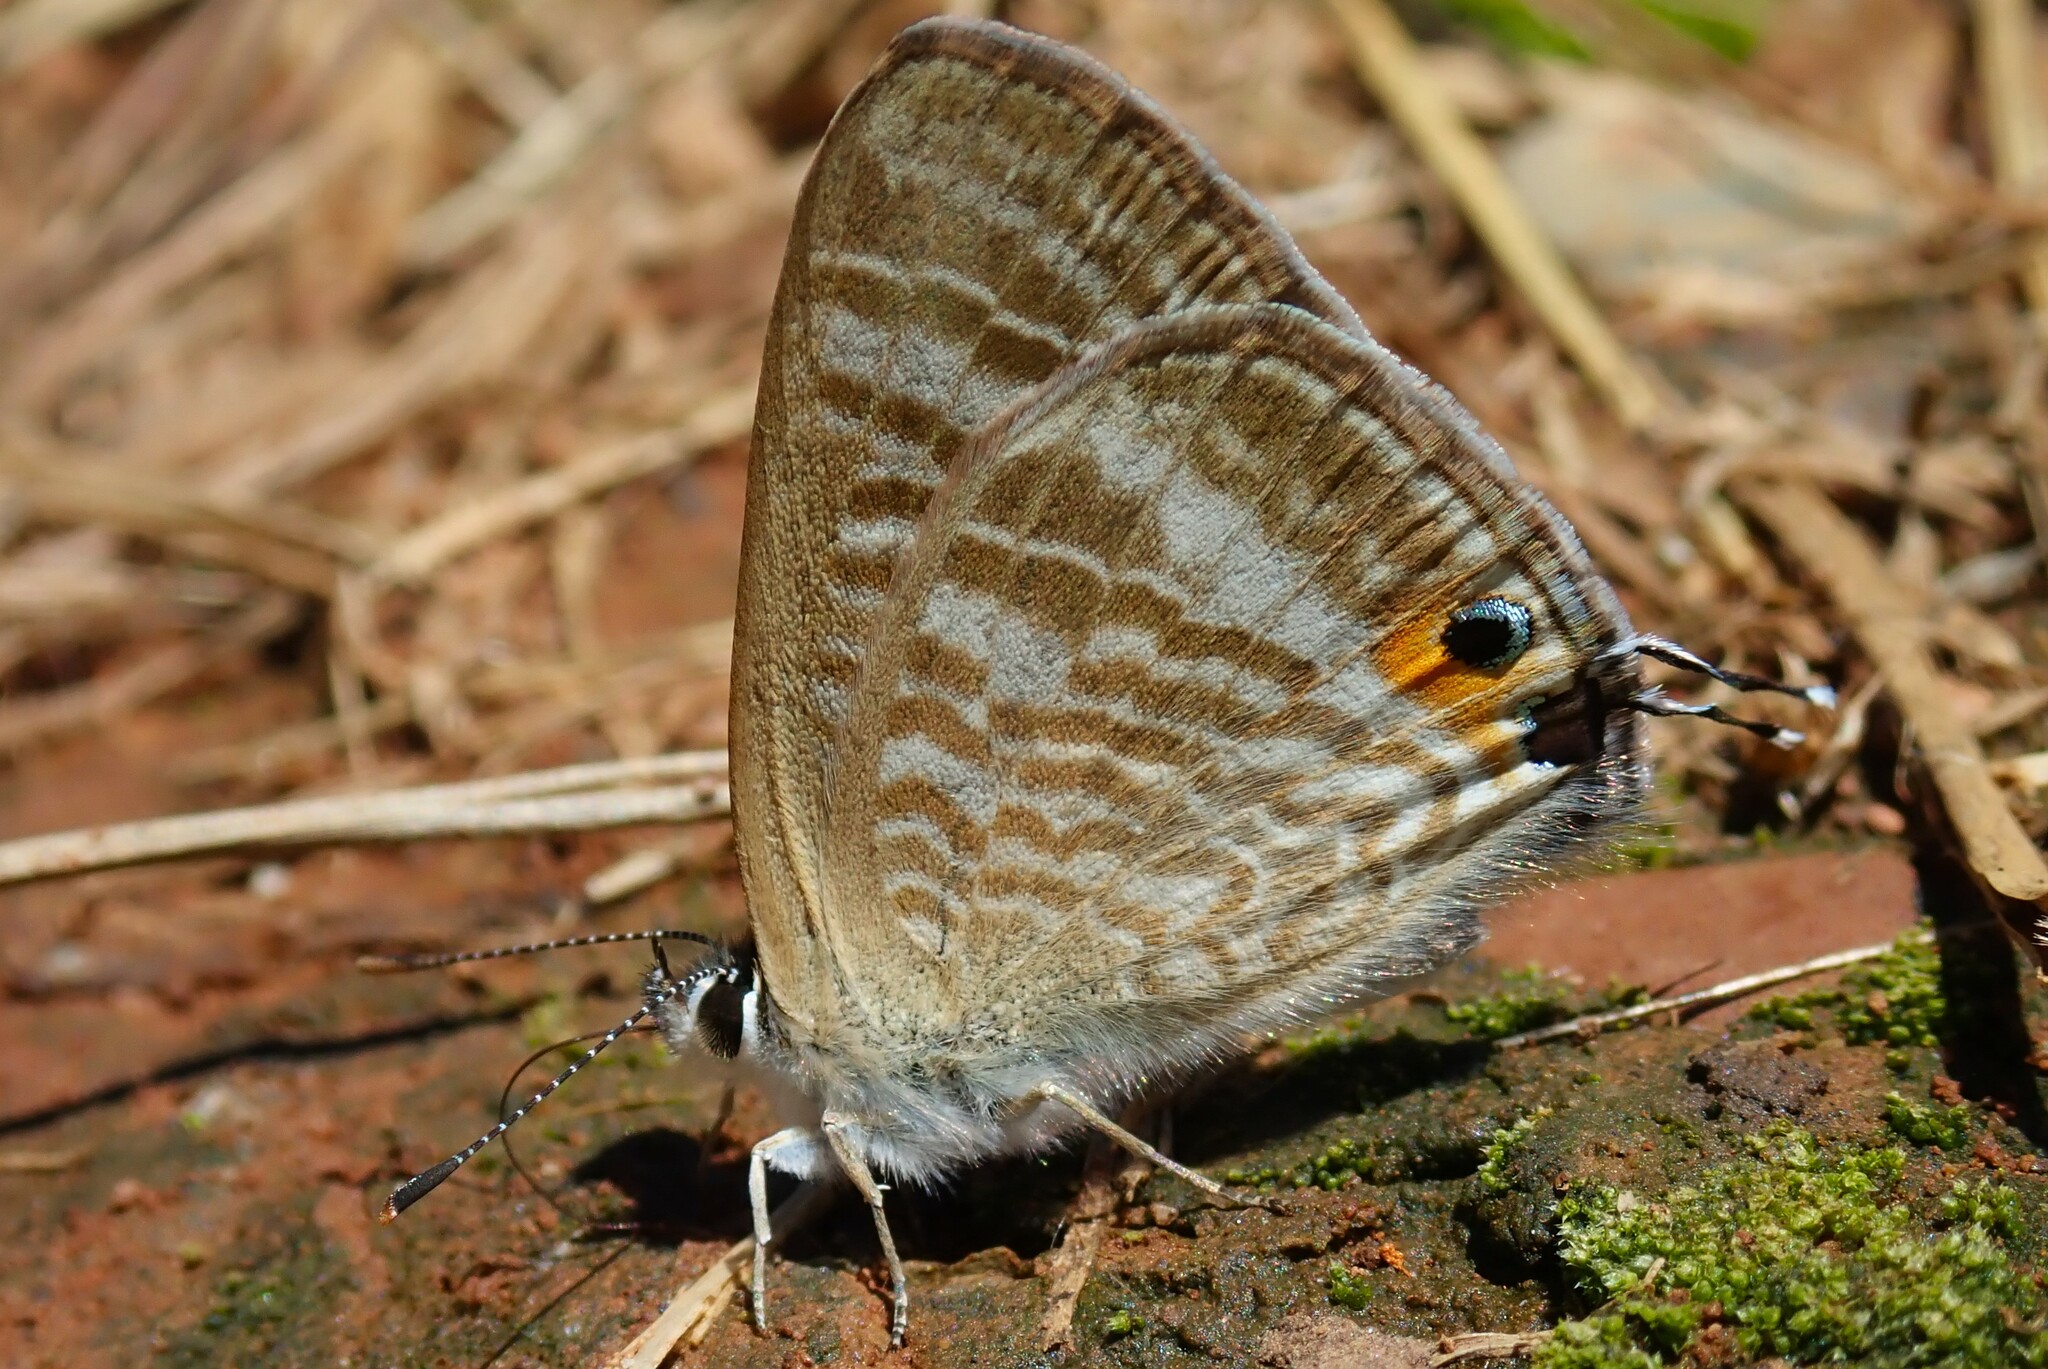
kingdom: Animalia
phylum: Arthropoda
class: Insecta
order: Lepidoptera
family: Lycaenidae
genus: Lampides
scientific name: Lampides boeticus
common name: Long-tailed blue
